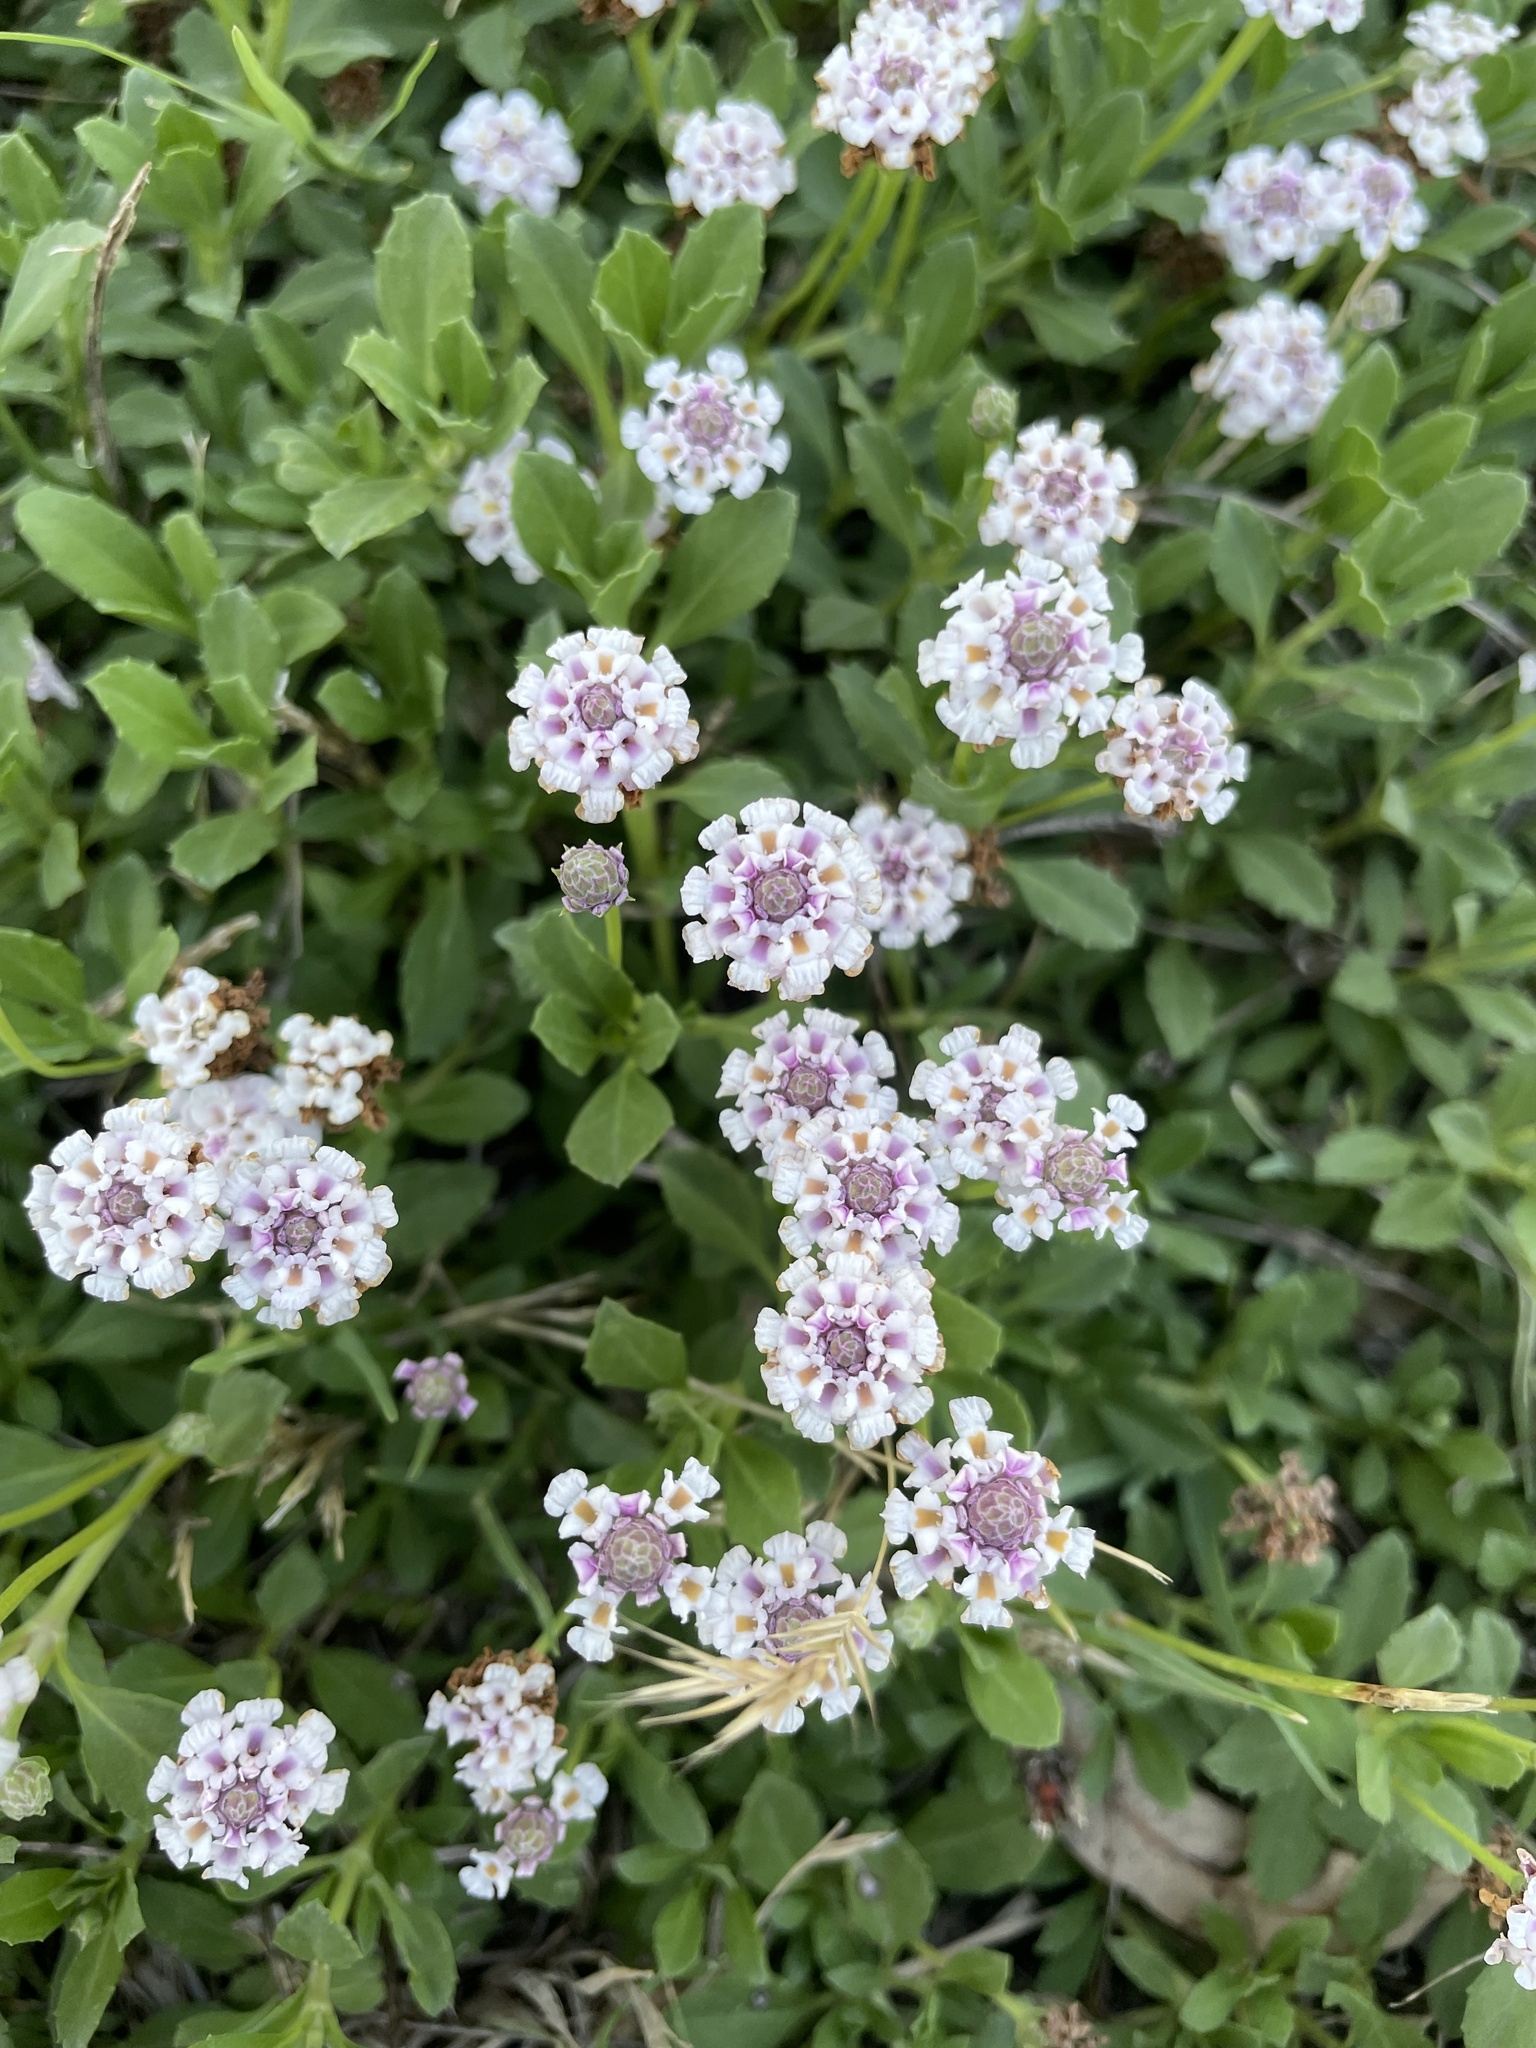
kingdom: Plantae
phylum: Tracheophyta
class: Magnoliopsida
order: Lamiales
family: Verbenaceae
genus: Phyla
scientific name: Phyla nodiflora
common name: Frogfruit
